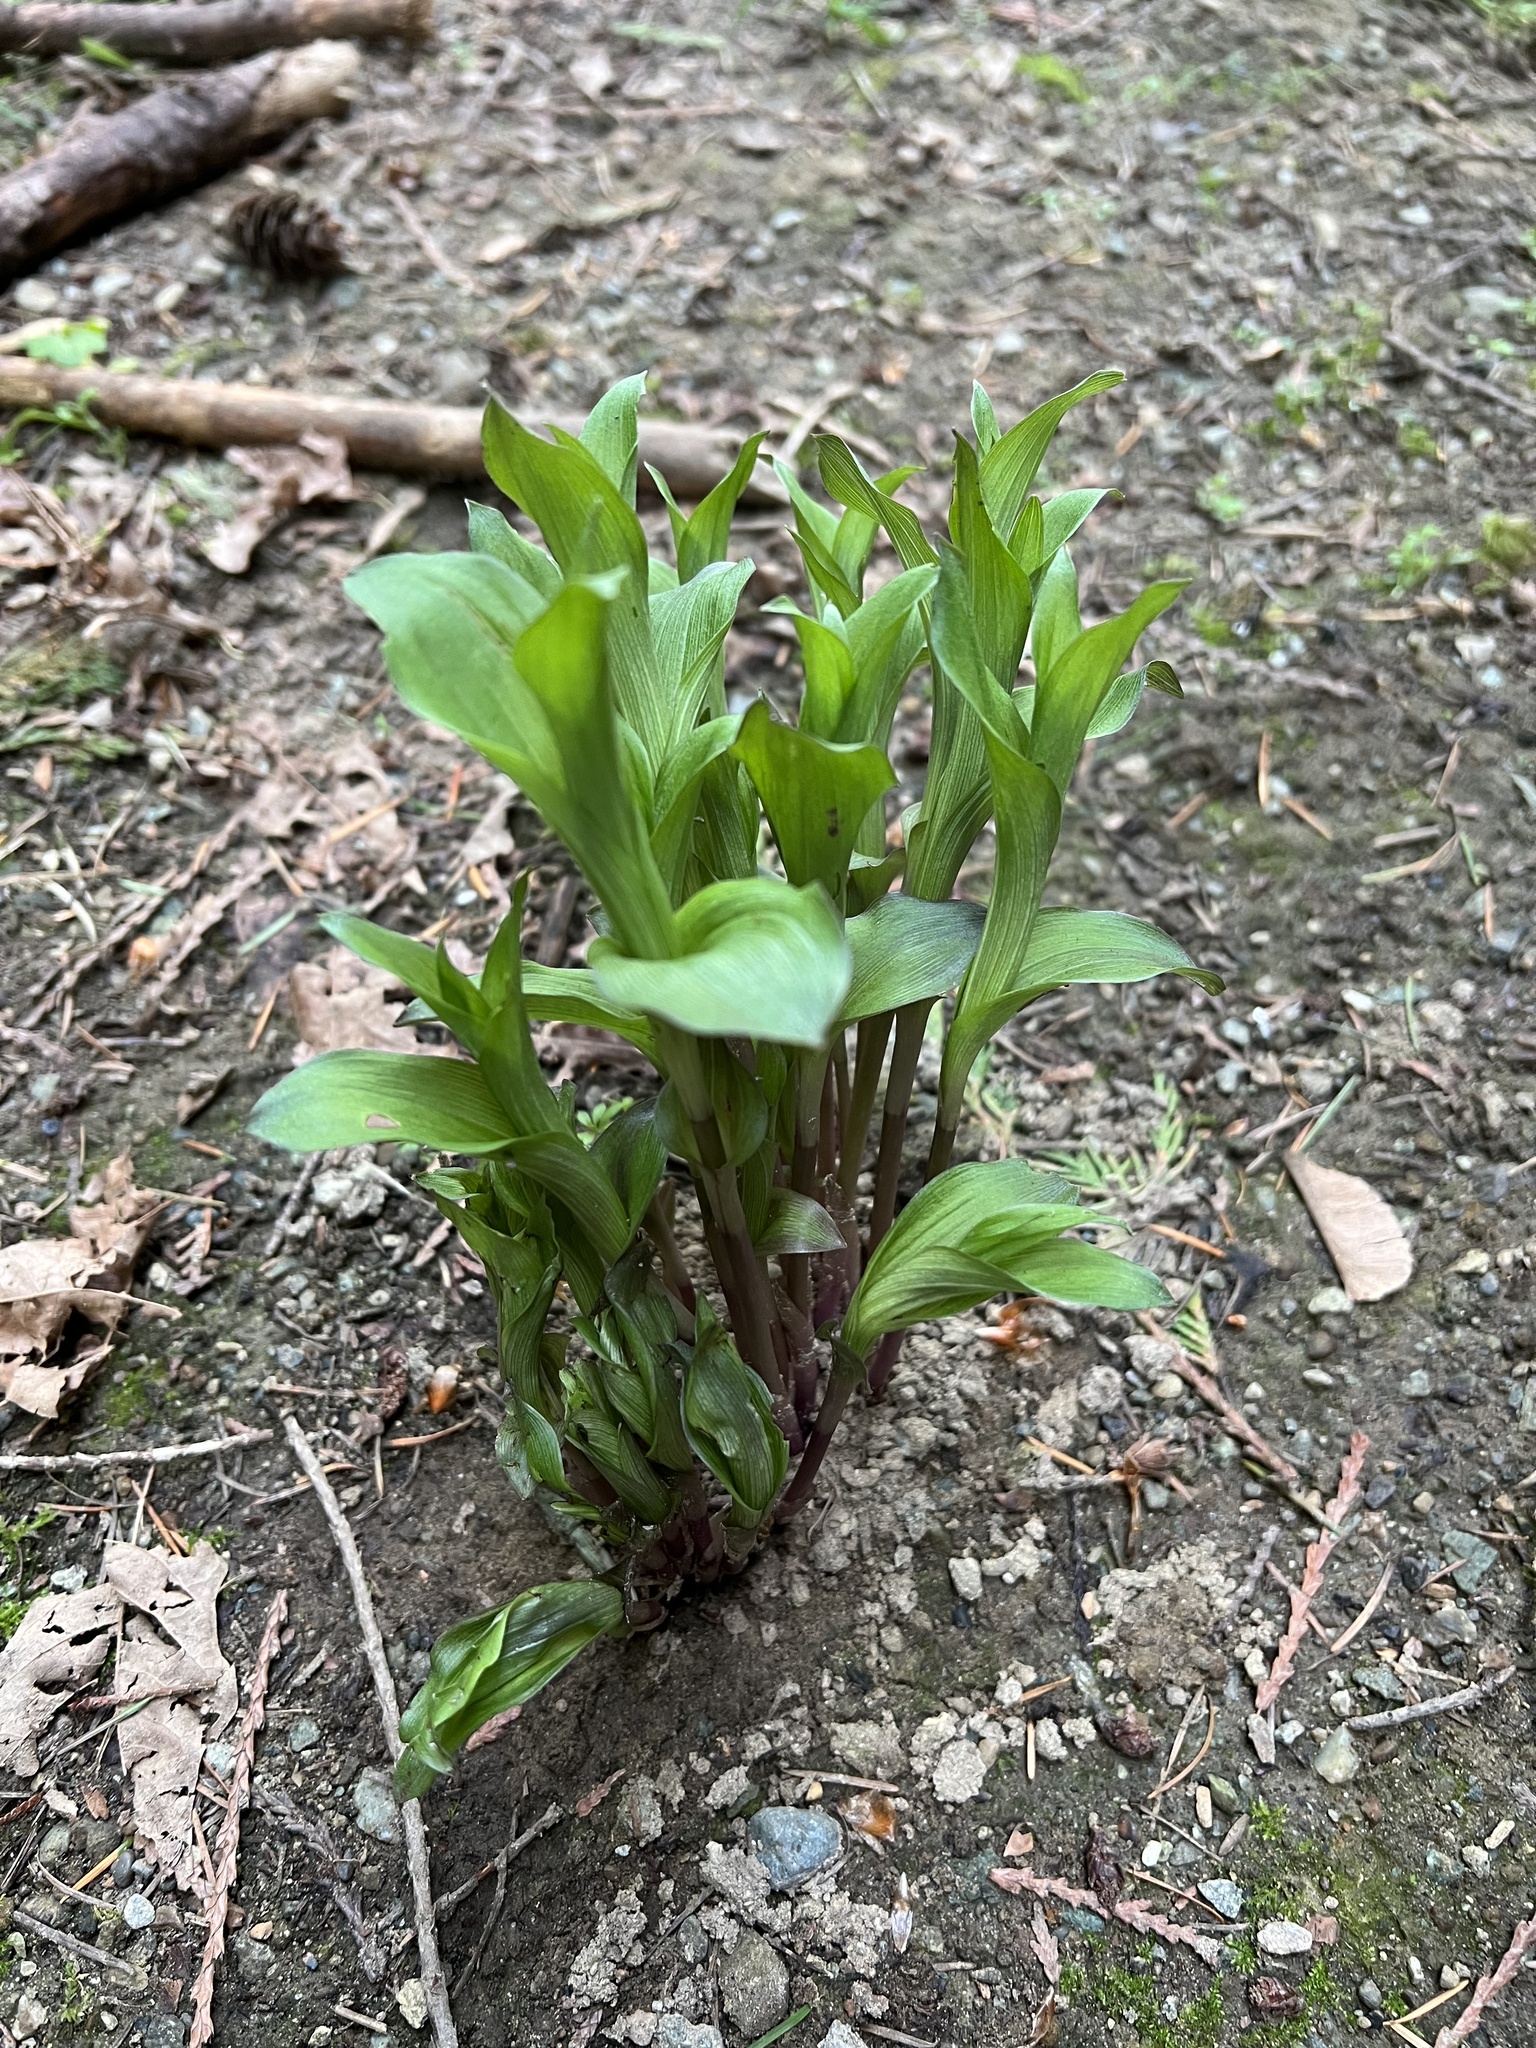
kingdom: Plantae
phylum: Tracheophyta
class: Liliopsida
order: Asparagales
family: Orchidaceae
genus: Epipactis
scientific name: Epipactis helleborine
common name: Broad-leaved helleborine
